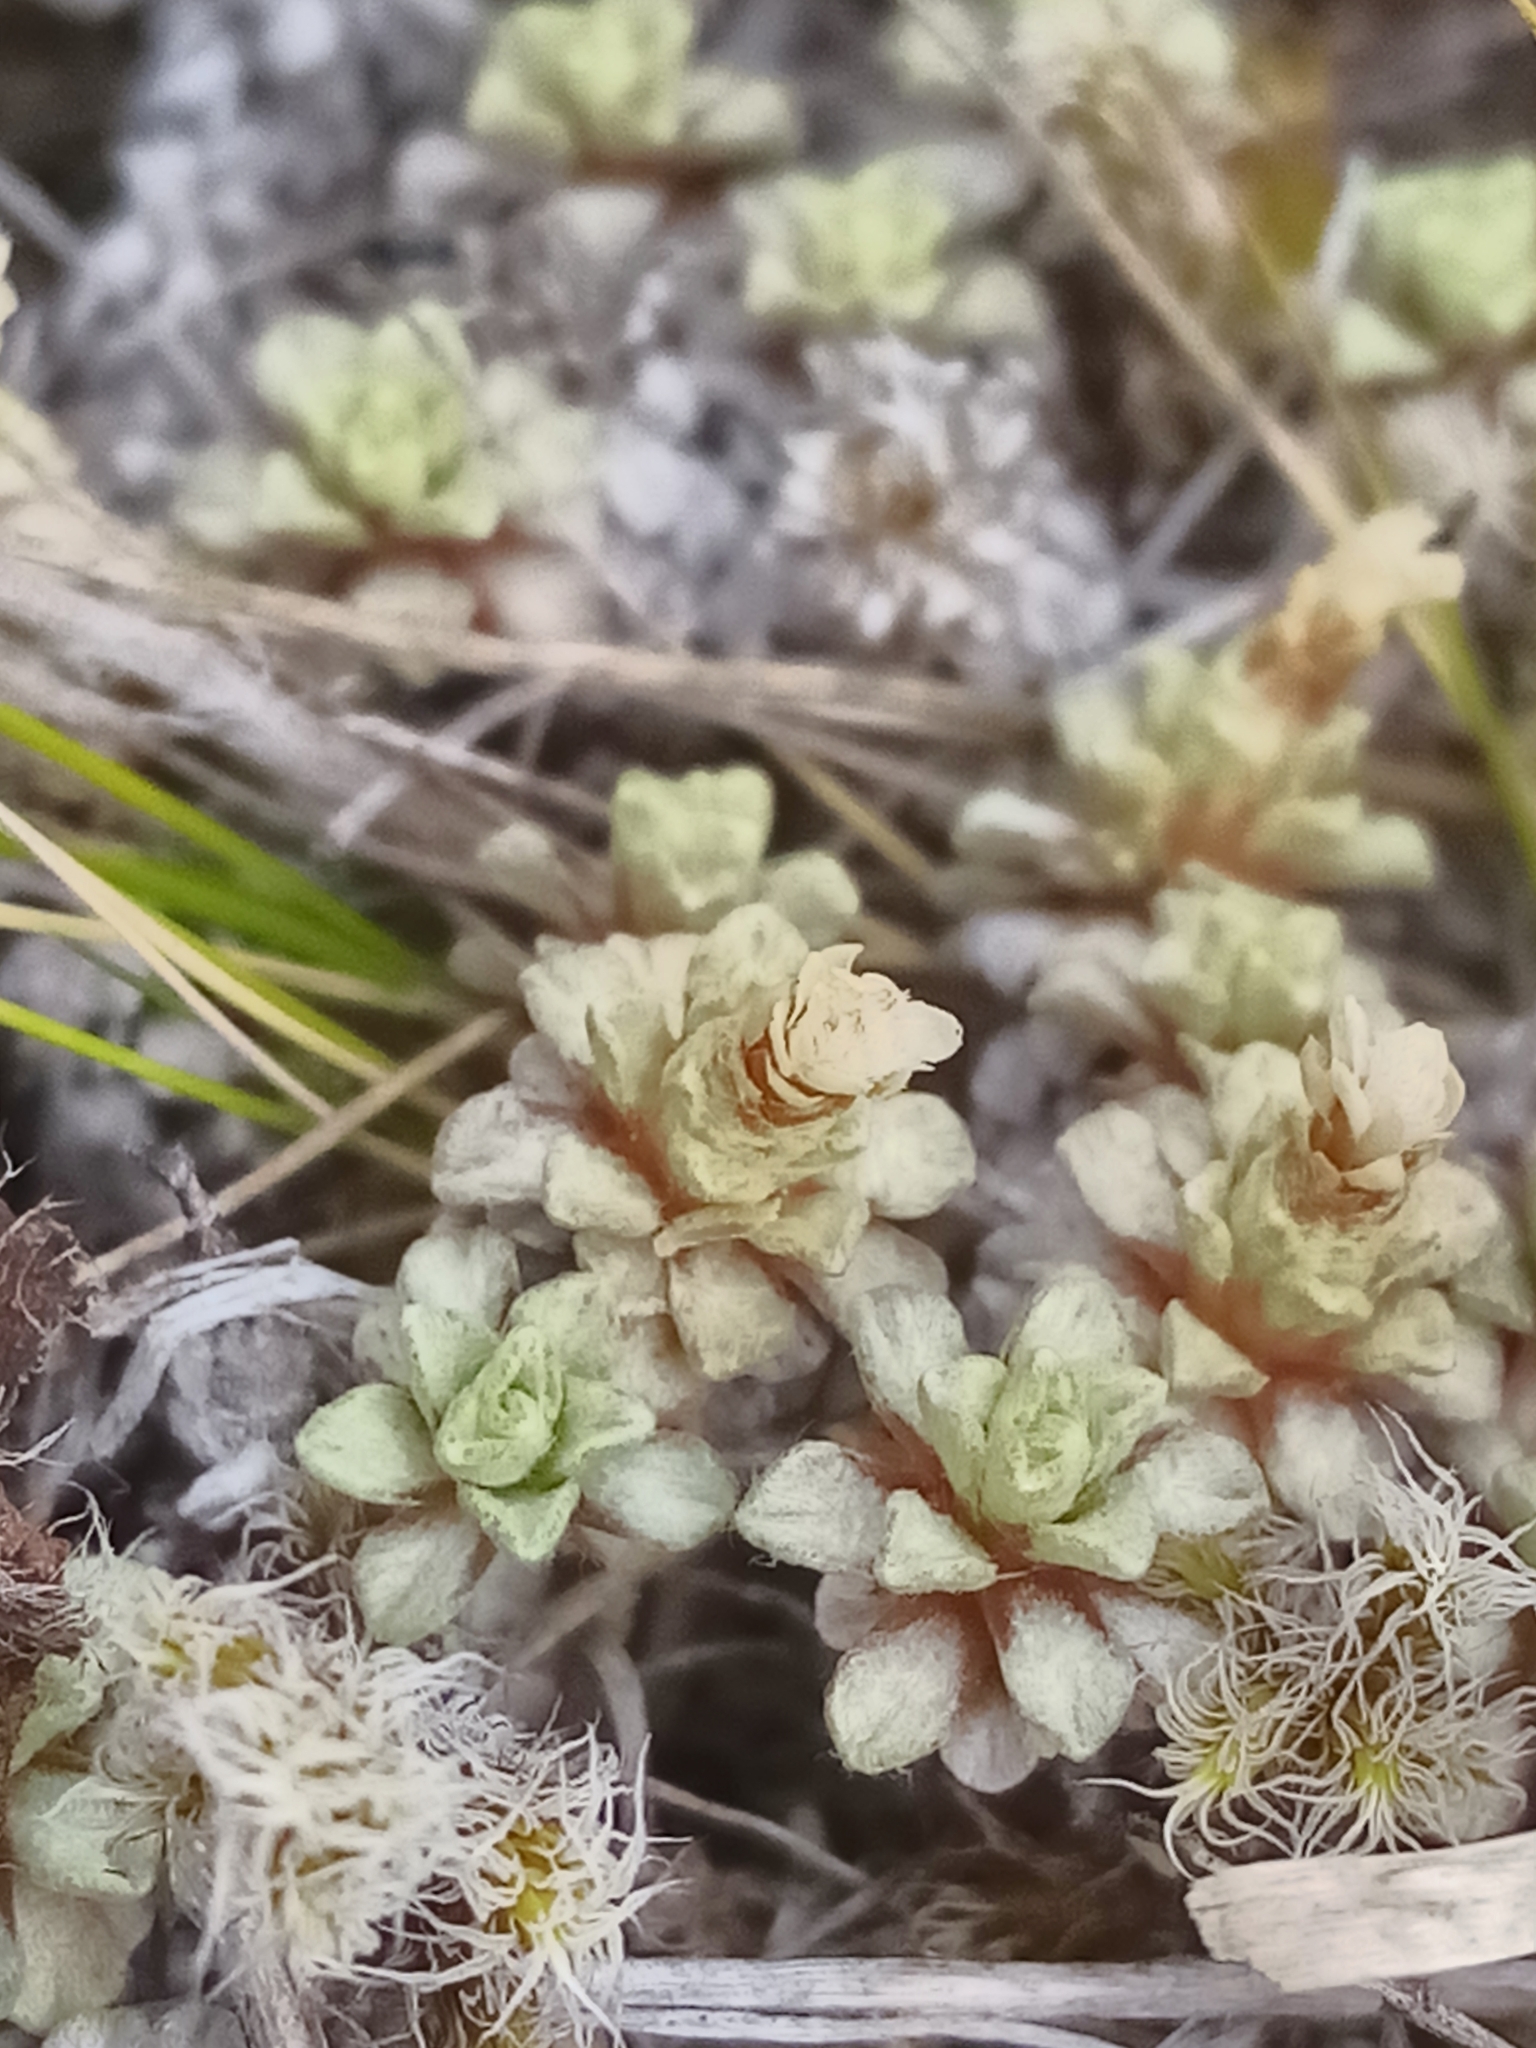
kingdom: Plantae
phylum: Tracheophyta
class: Magnoliopsida
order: Asterales
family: Asteraceae
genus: Raoulia
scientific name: Raoulia parkii
